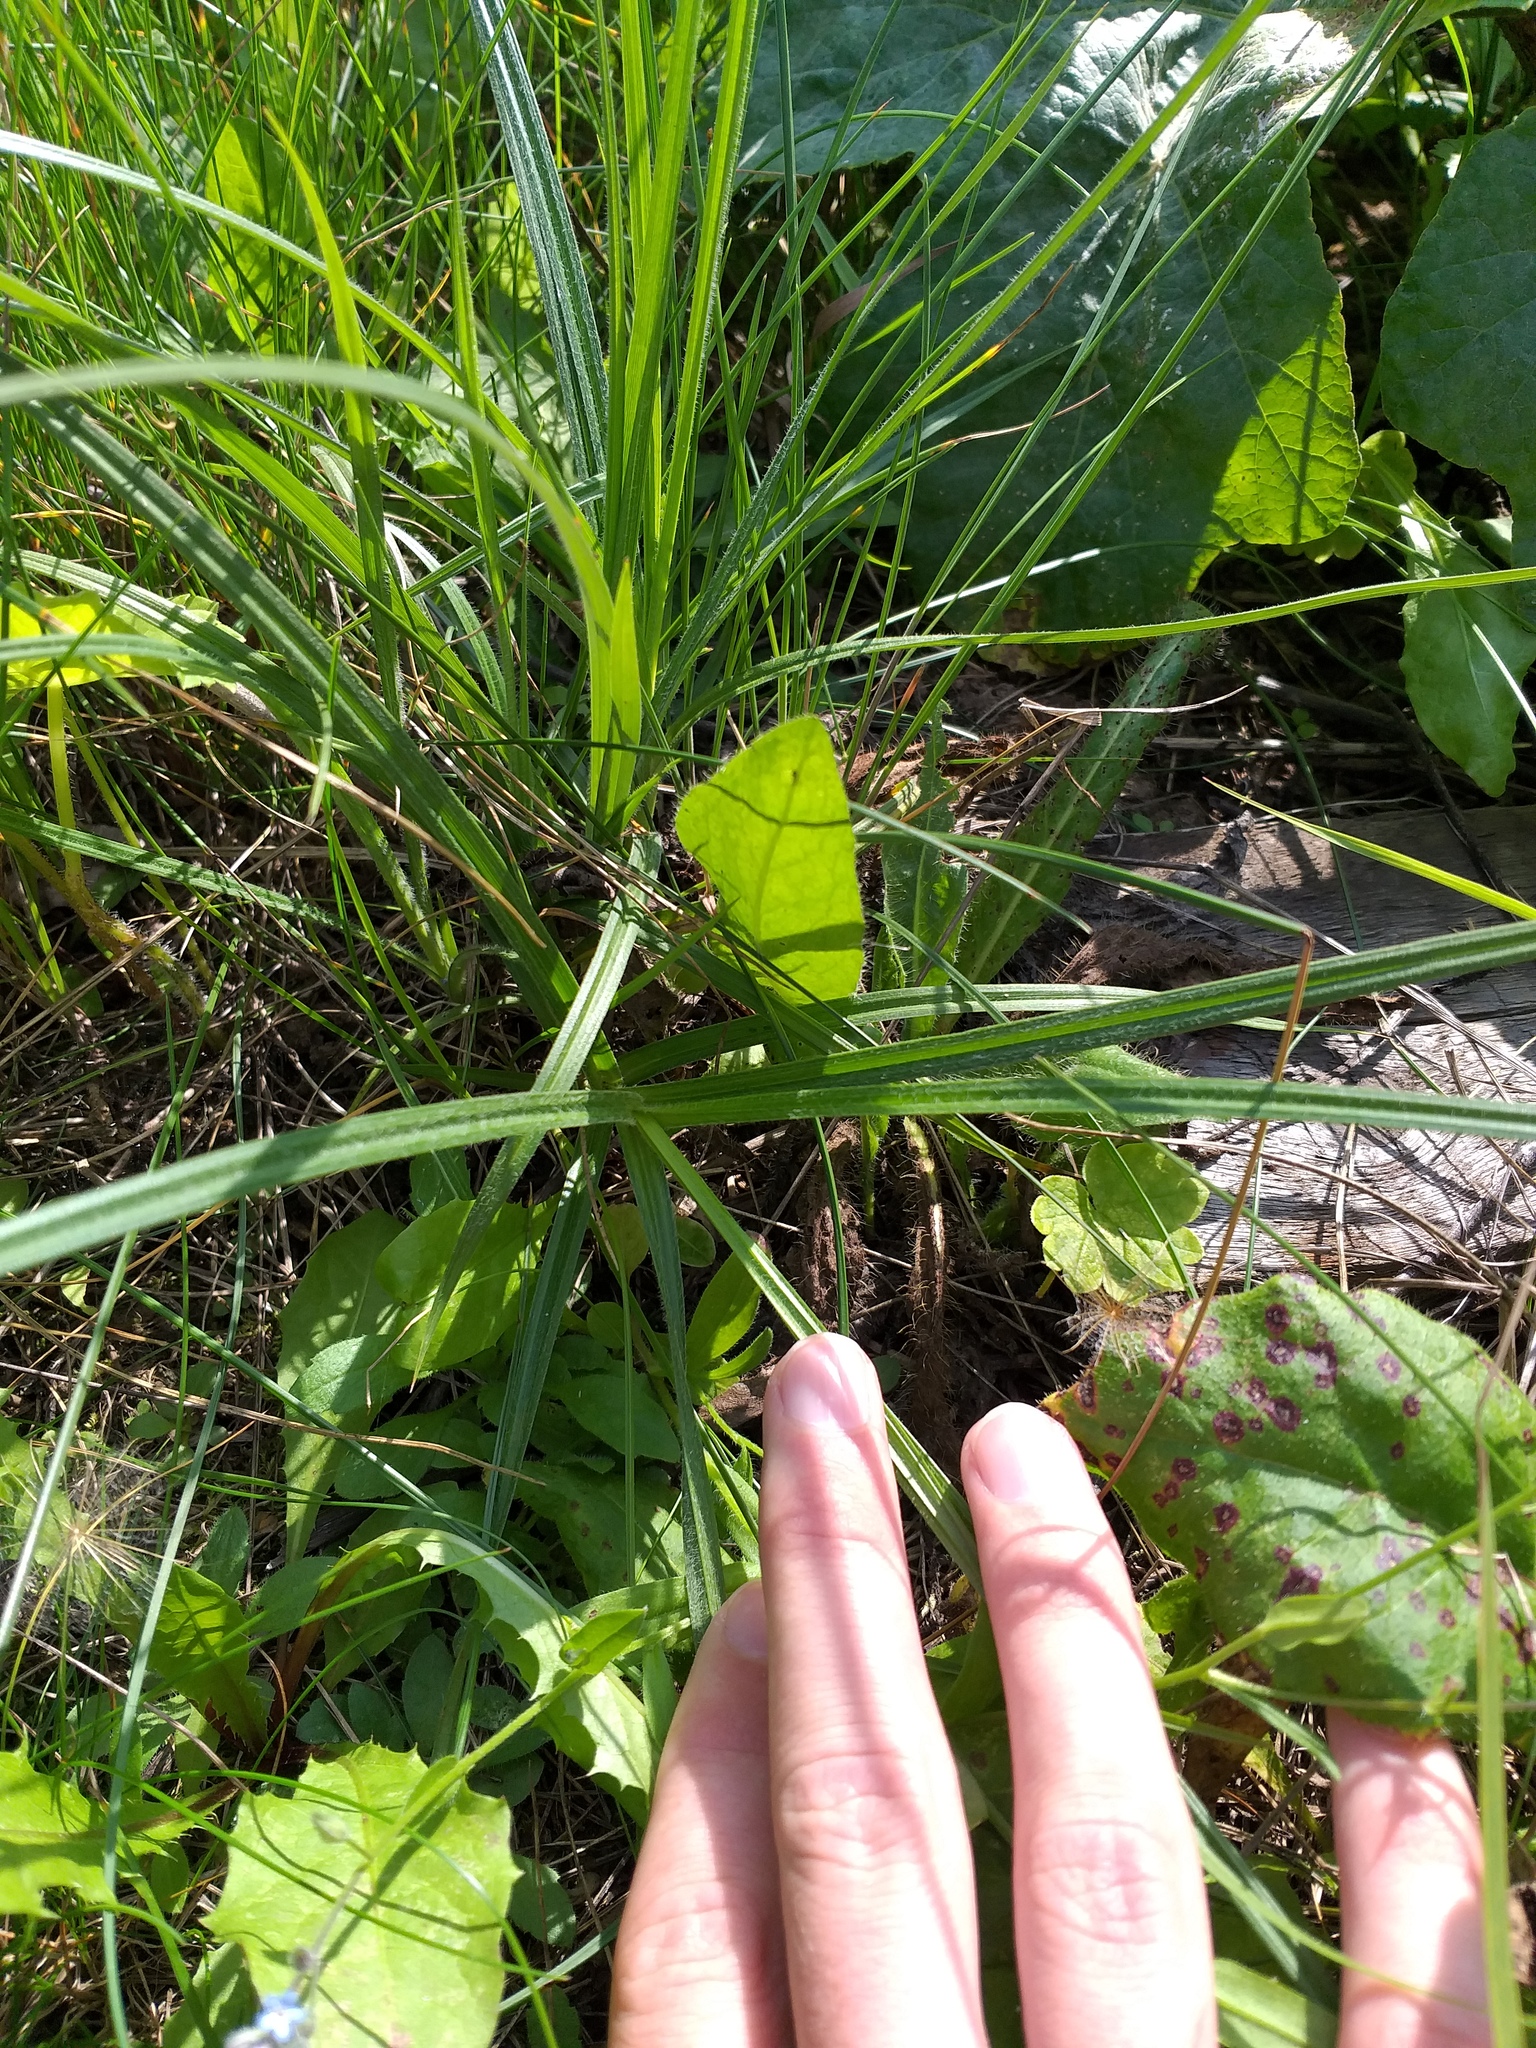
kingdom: Plantae
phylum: Tracheophyta
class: Liliopsida
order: Poales
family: Cyperaceae
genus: Carex
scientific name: Carex hirta
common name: Hairy sedge
